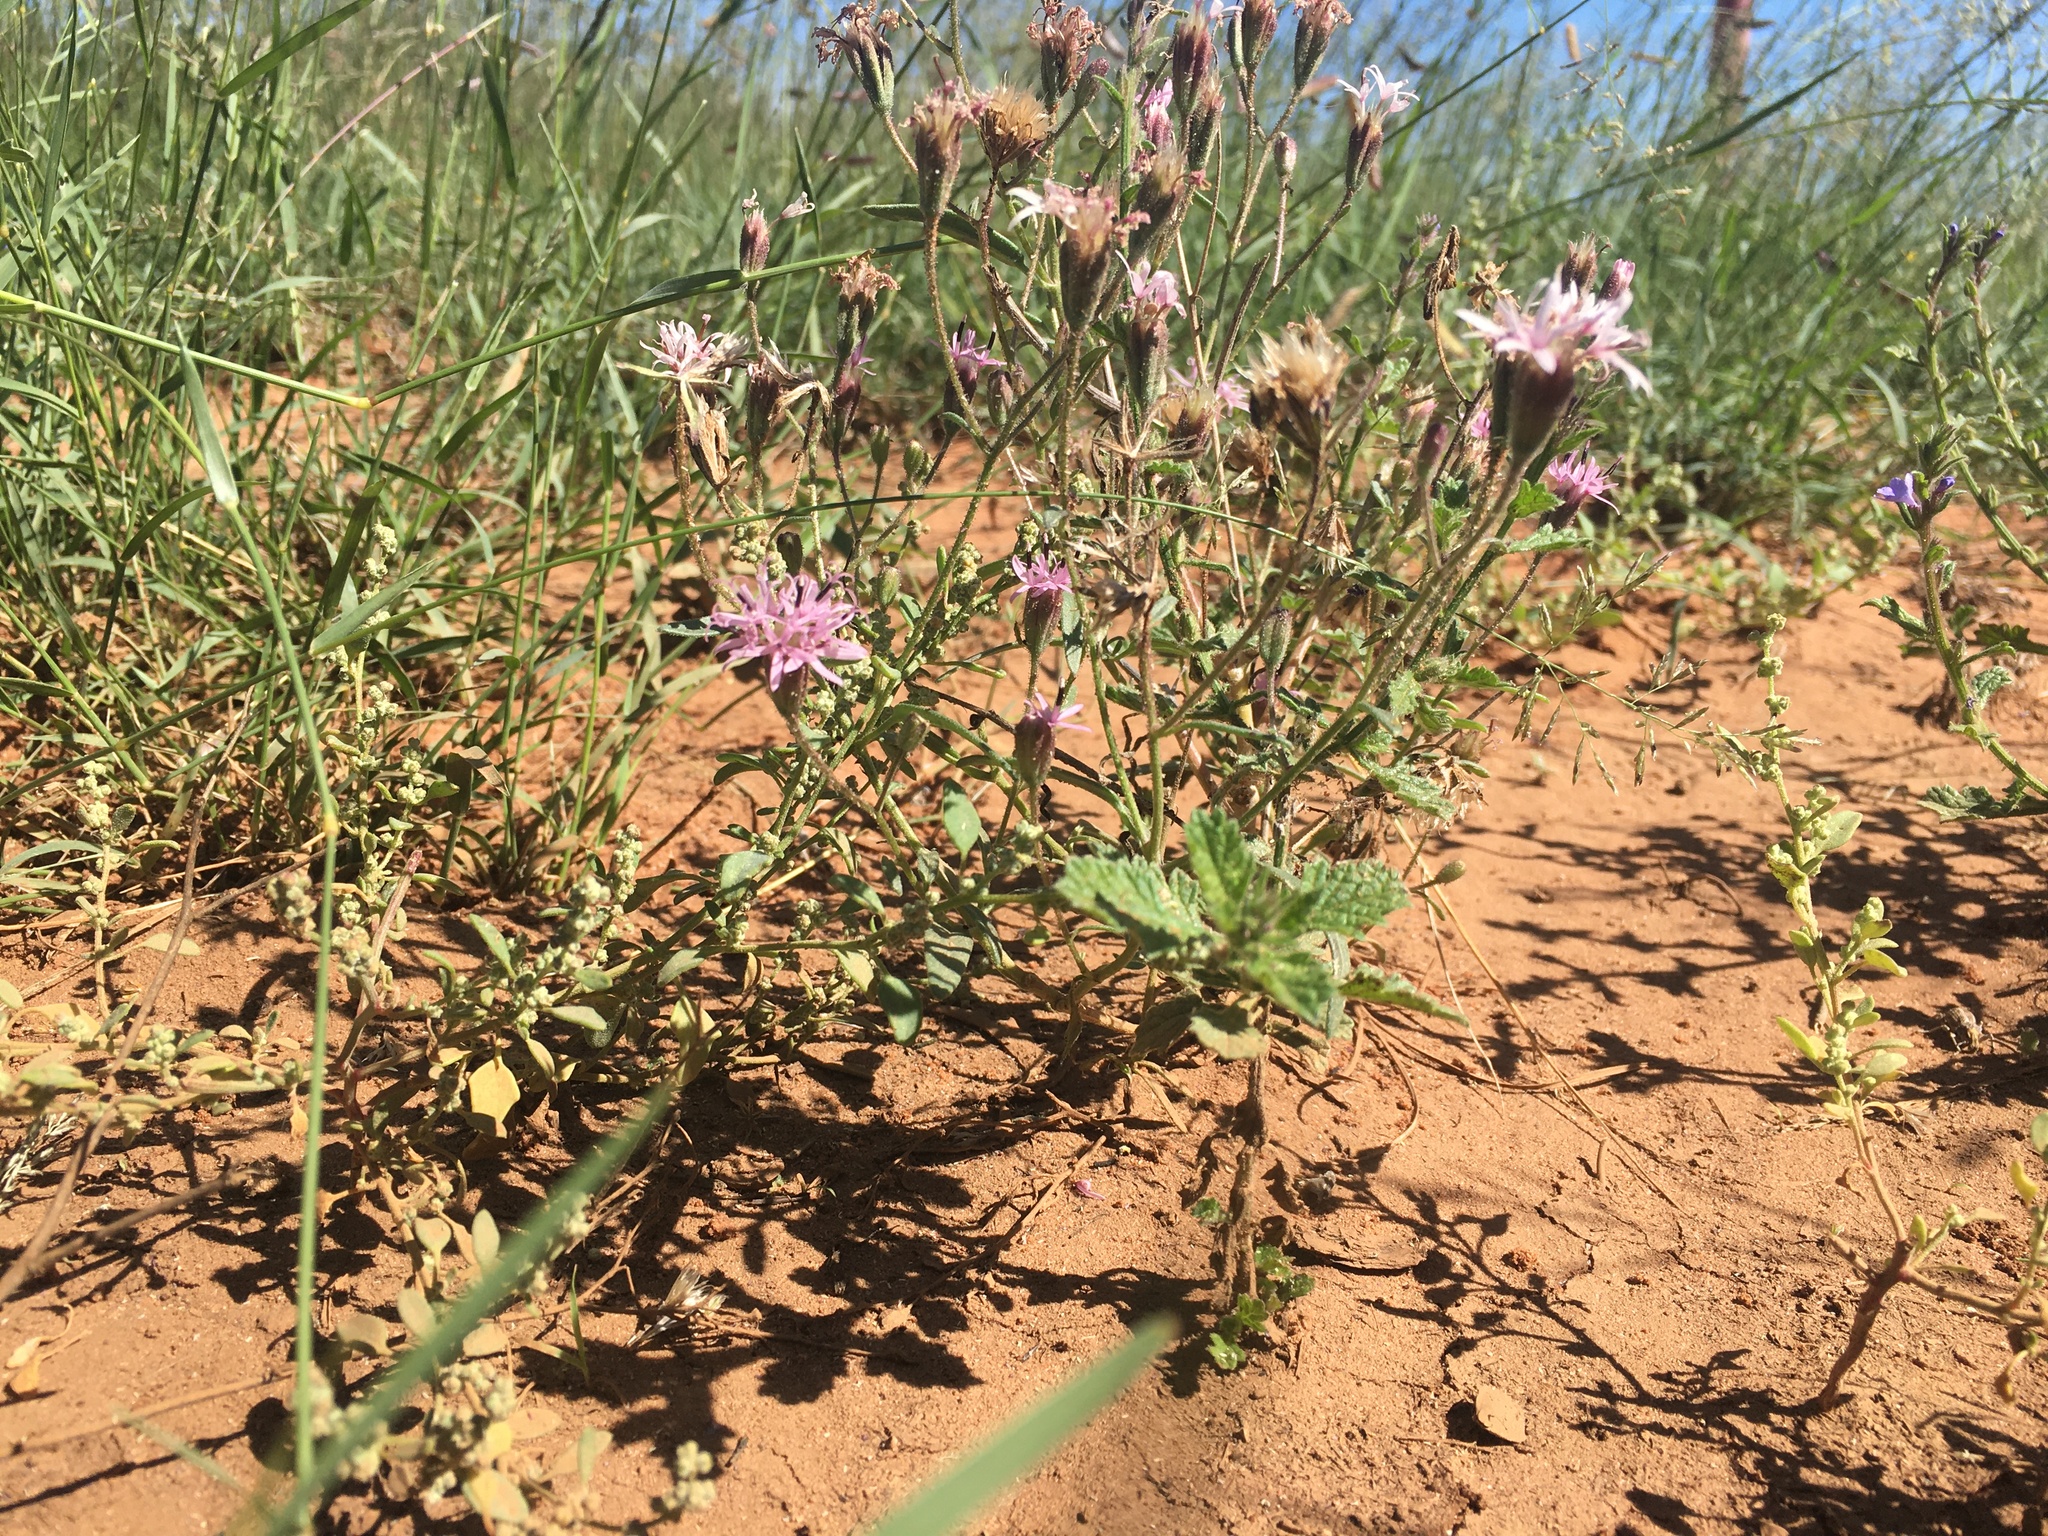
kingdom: Plantae
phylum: Tracheophyta
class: Magnoliopsida
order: Asterales
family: Asteraceae
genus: Palafoxia
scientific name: Palafoxia rosea
